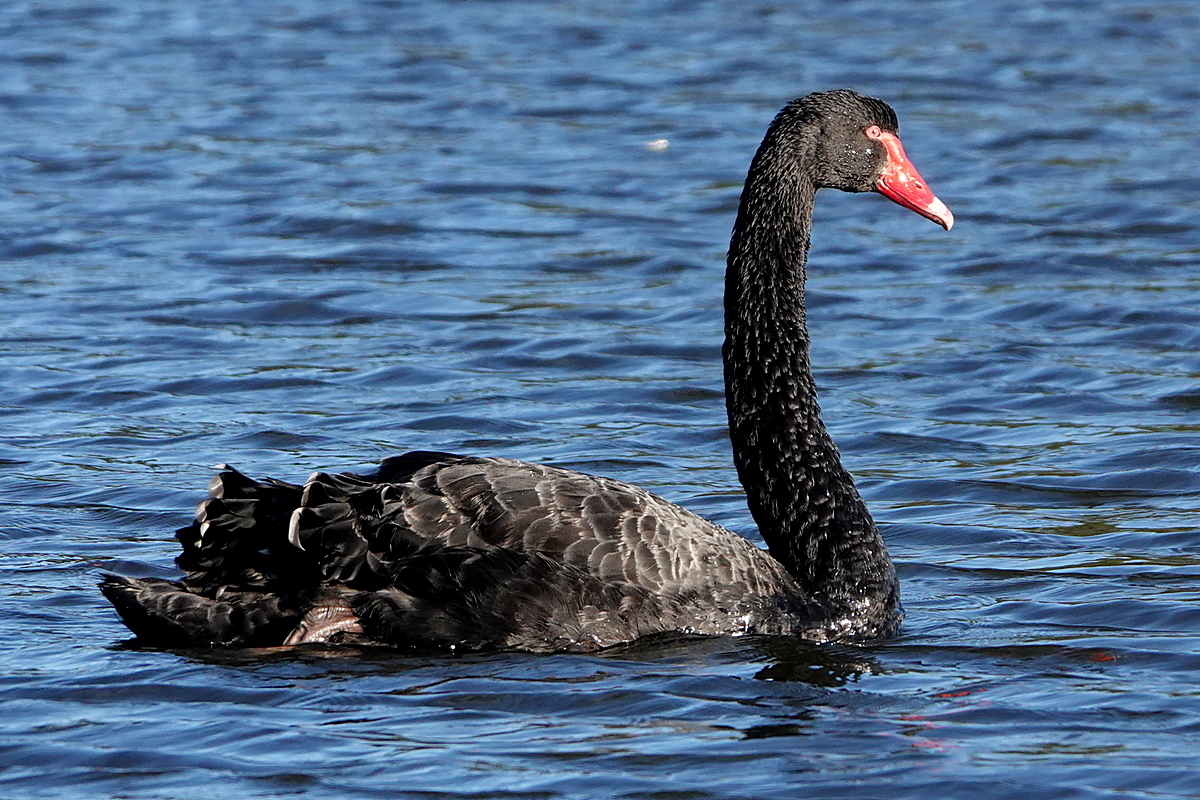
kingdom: Animalia
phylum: Chordata
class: Aves
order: Anseriformes
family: Anatidae
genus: Cygnus
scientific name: Cygnus atratus
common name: Black swan
